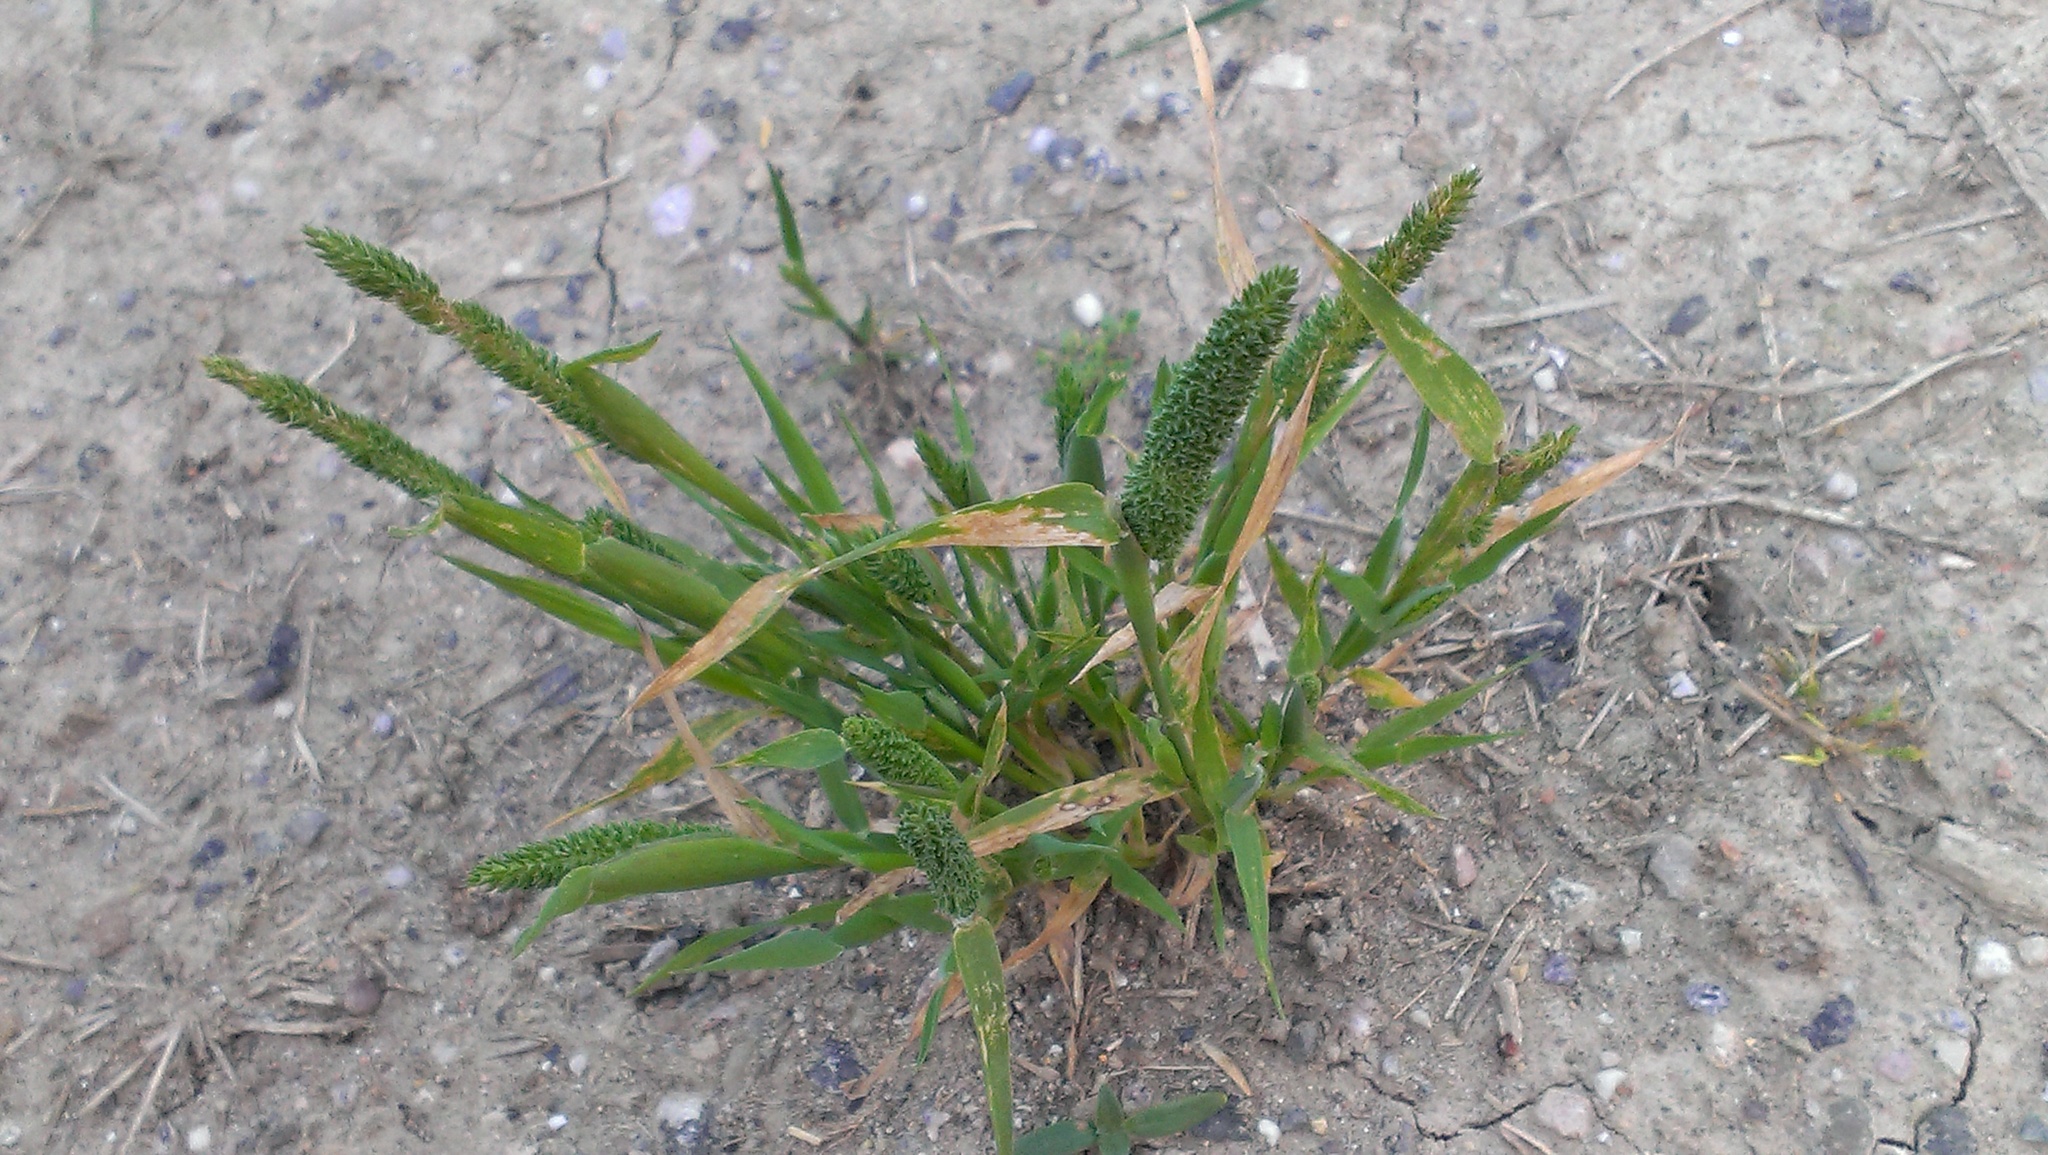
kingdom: Plantae
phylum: Tracheophyta
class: Liliopsida
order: Poales
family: Poaceae
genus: Phleum
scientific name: Phleum paniculatum
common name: British timothy
